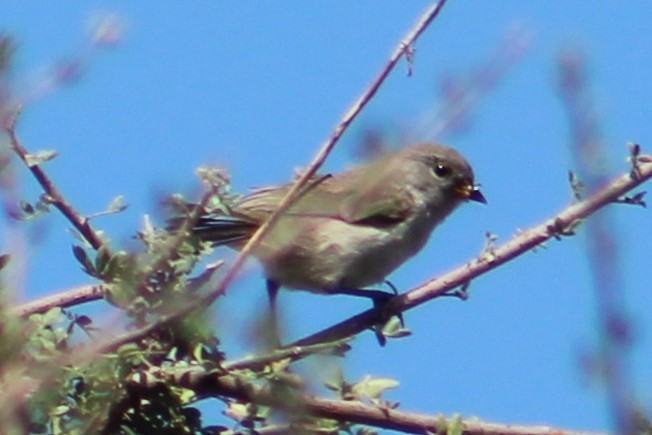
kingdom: Animalia
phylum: Chordata
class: Aves
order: Passeriformes
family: Remizidae
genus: Auriparus
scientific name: Auriparus flaviceps
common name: Verdin
